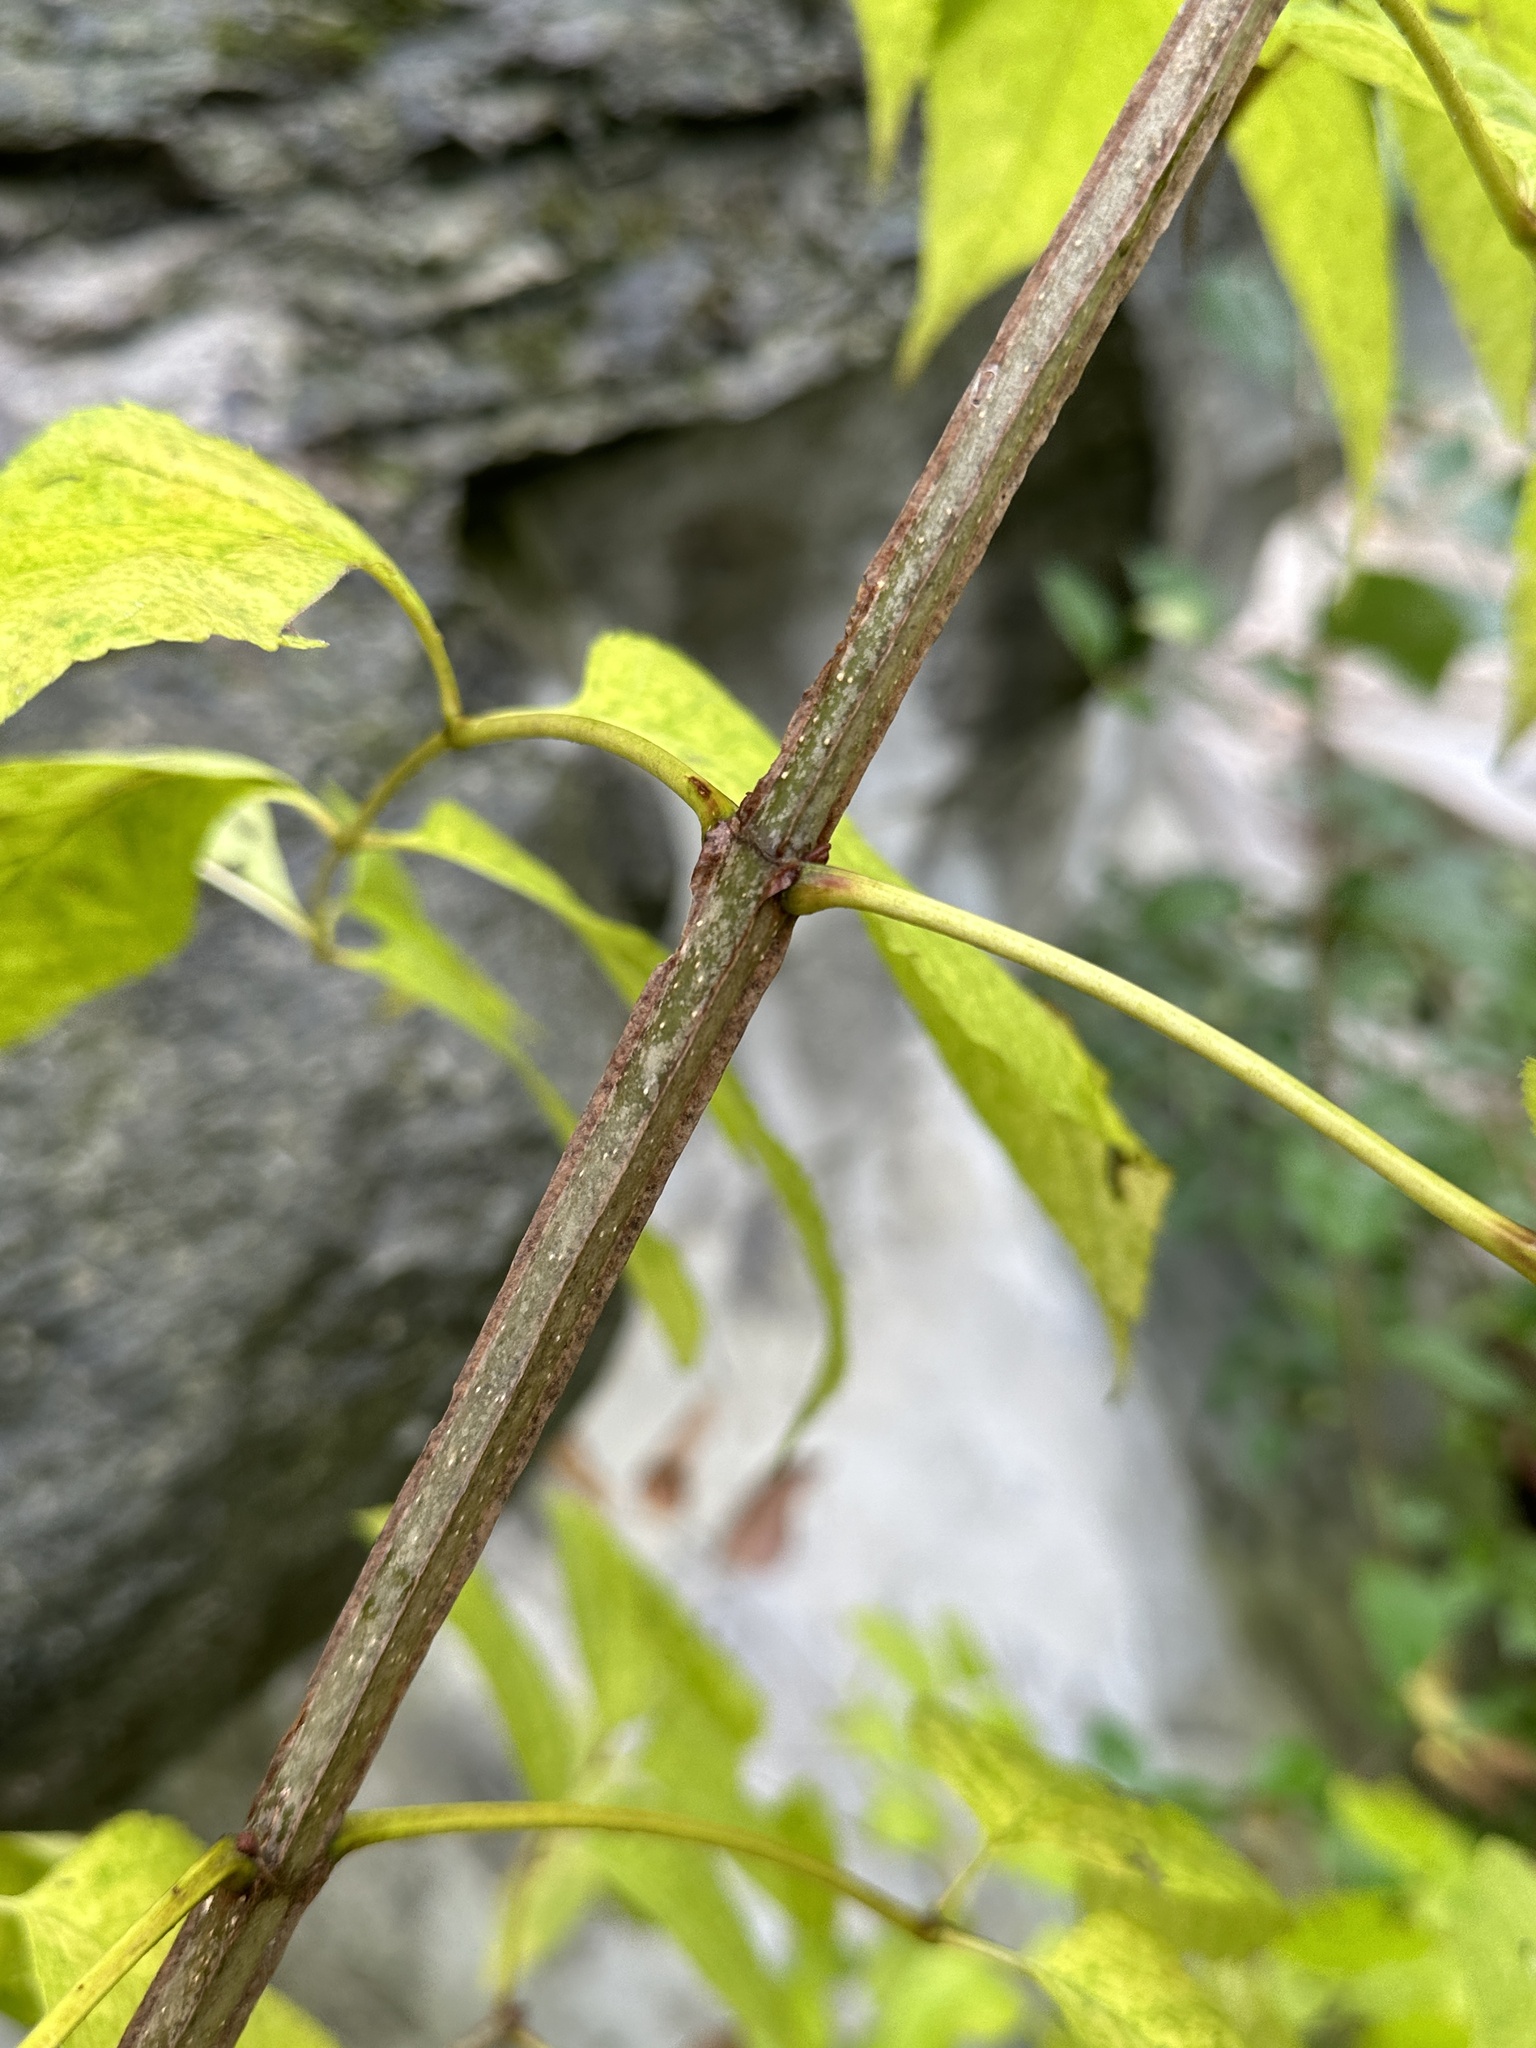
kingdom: Plantae
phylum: Tracheophyta
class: Magnoliopsida
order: Lamiales
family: Oleaceae
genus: Fraxinus
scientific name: Fraxinus quadrangulata
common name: Blue ash
